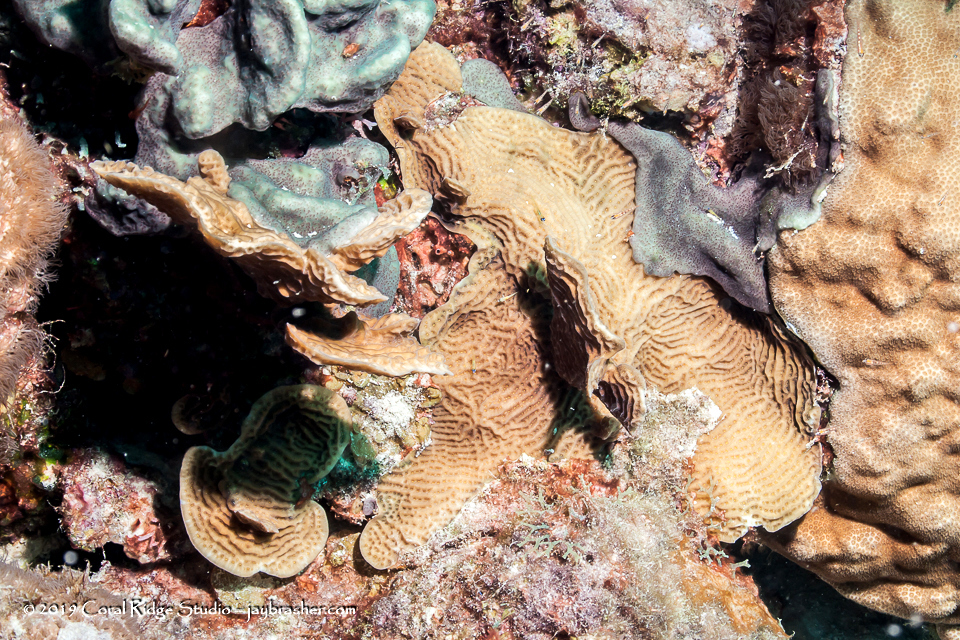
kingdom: Animalia
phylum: Cnidaria
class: Anthozoa
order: Scleractinia
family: Agariciidae
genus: Agaricia
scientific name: Agaricia agaricites
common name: Lettuce coral
